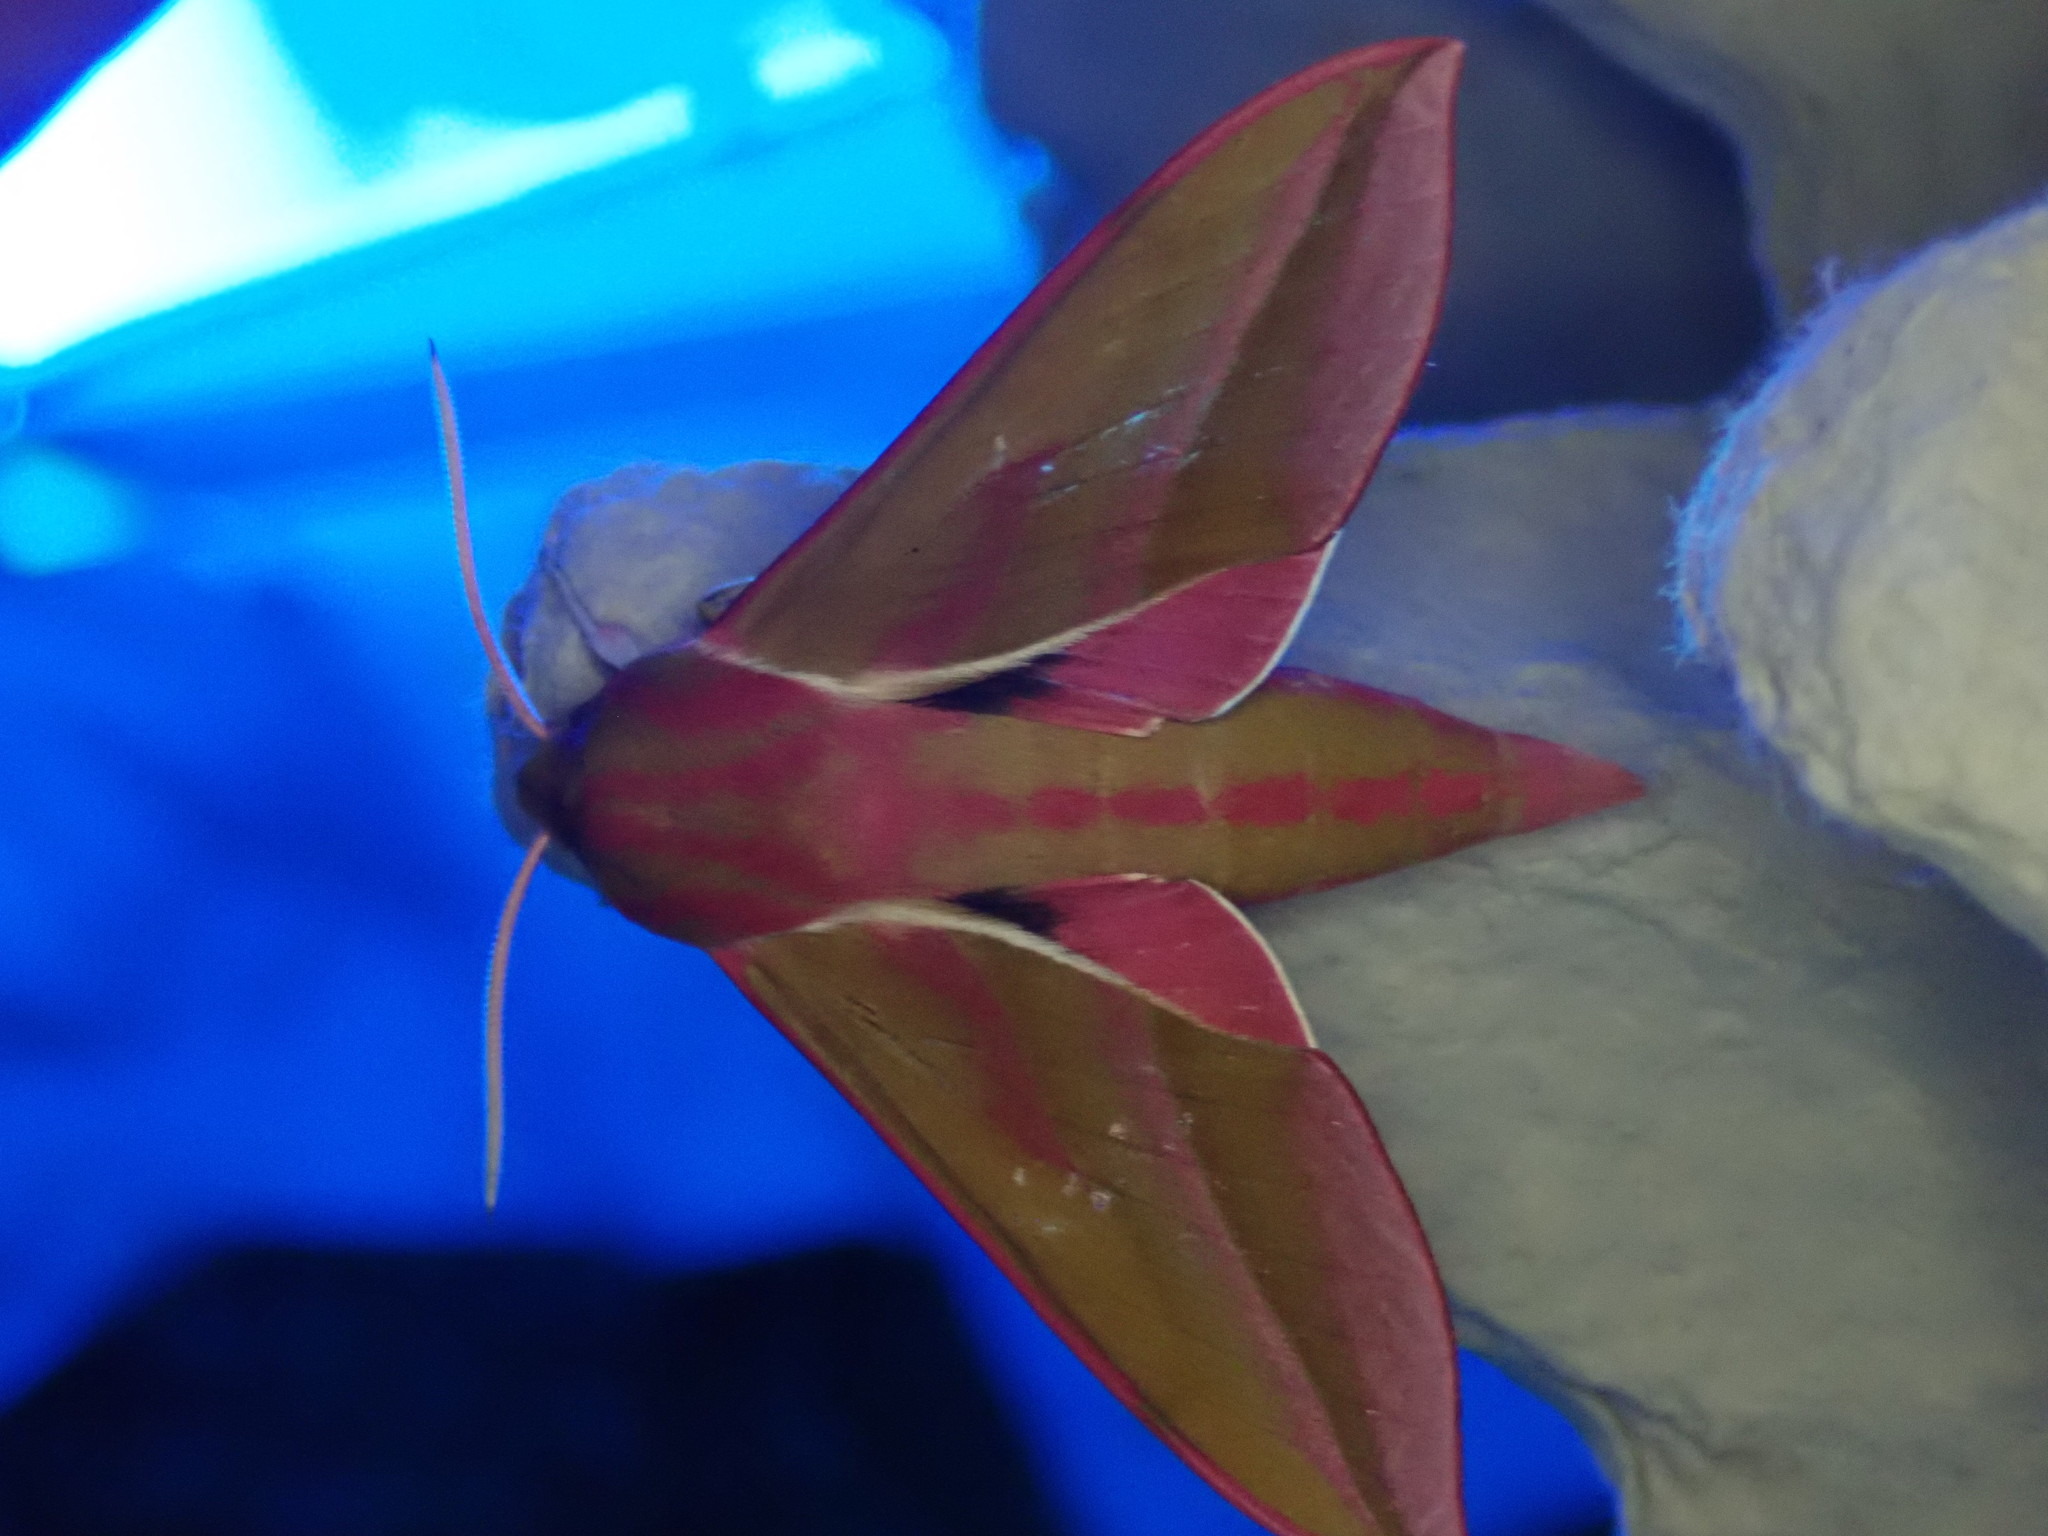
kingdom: Animalia
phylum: Arthropoda
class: Insecta
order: Lepidoptera
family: Sphingidae
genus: Deilephila
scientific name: Deilephila elpenor
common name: Elephant hawk-moth
